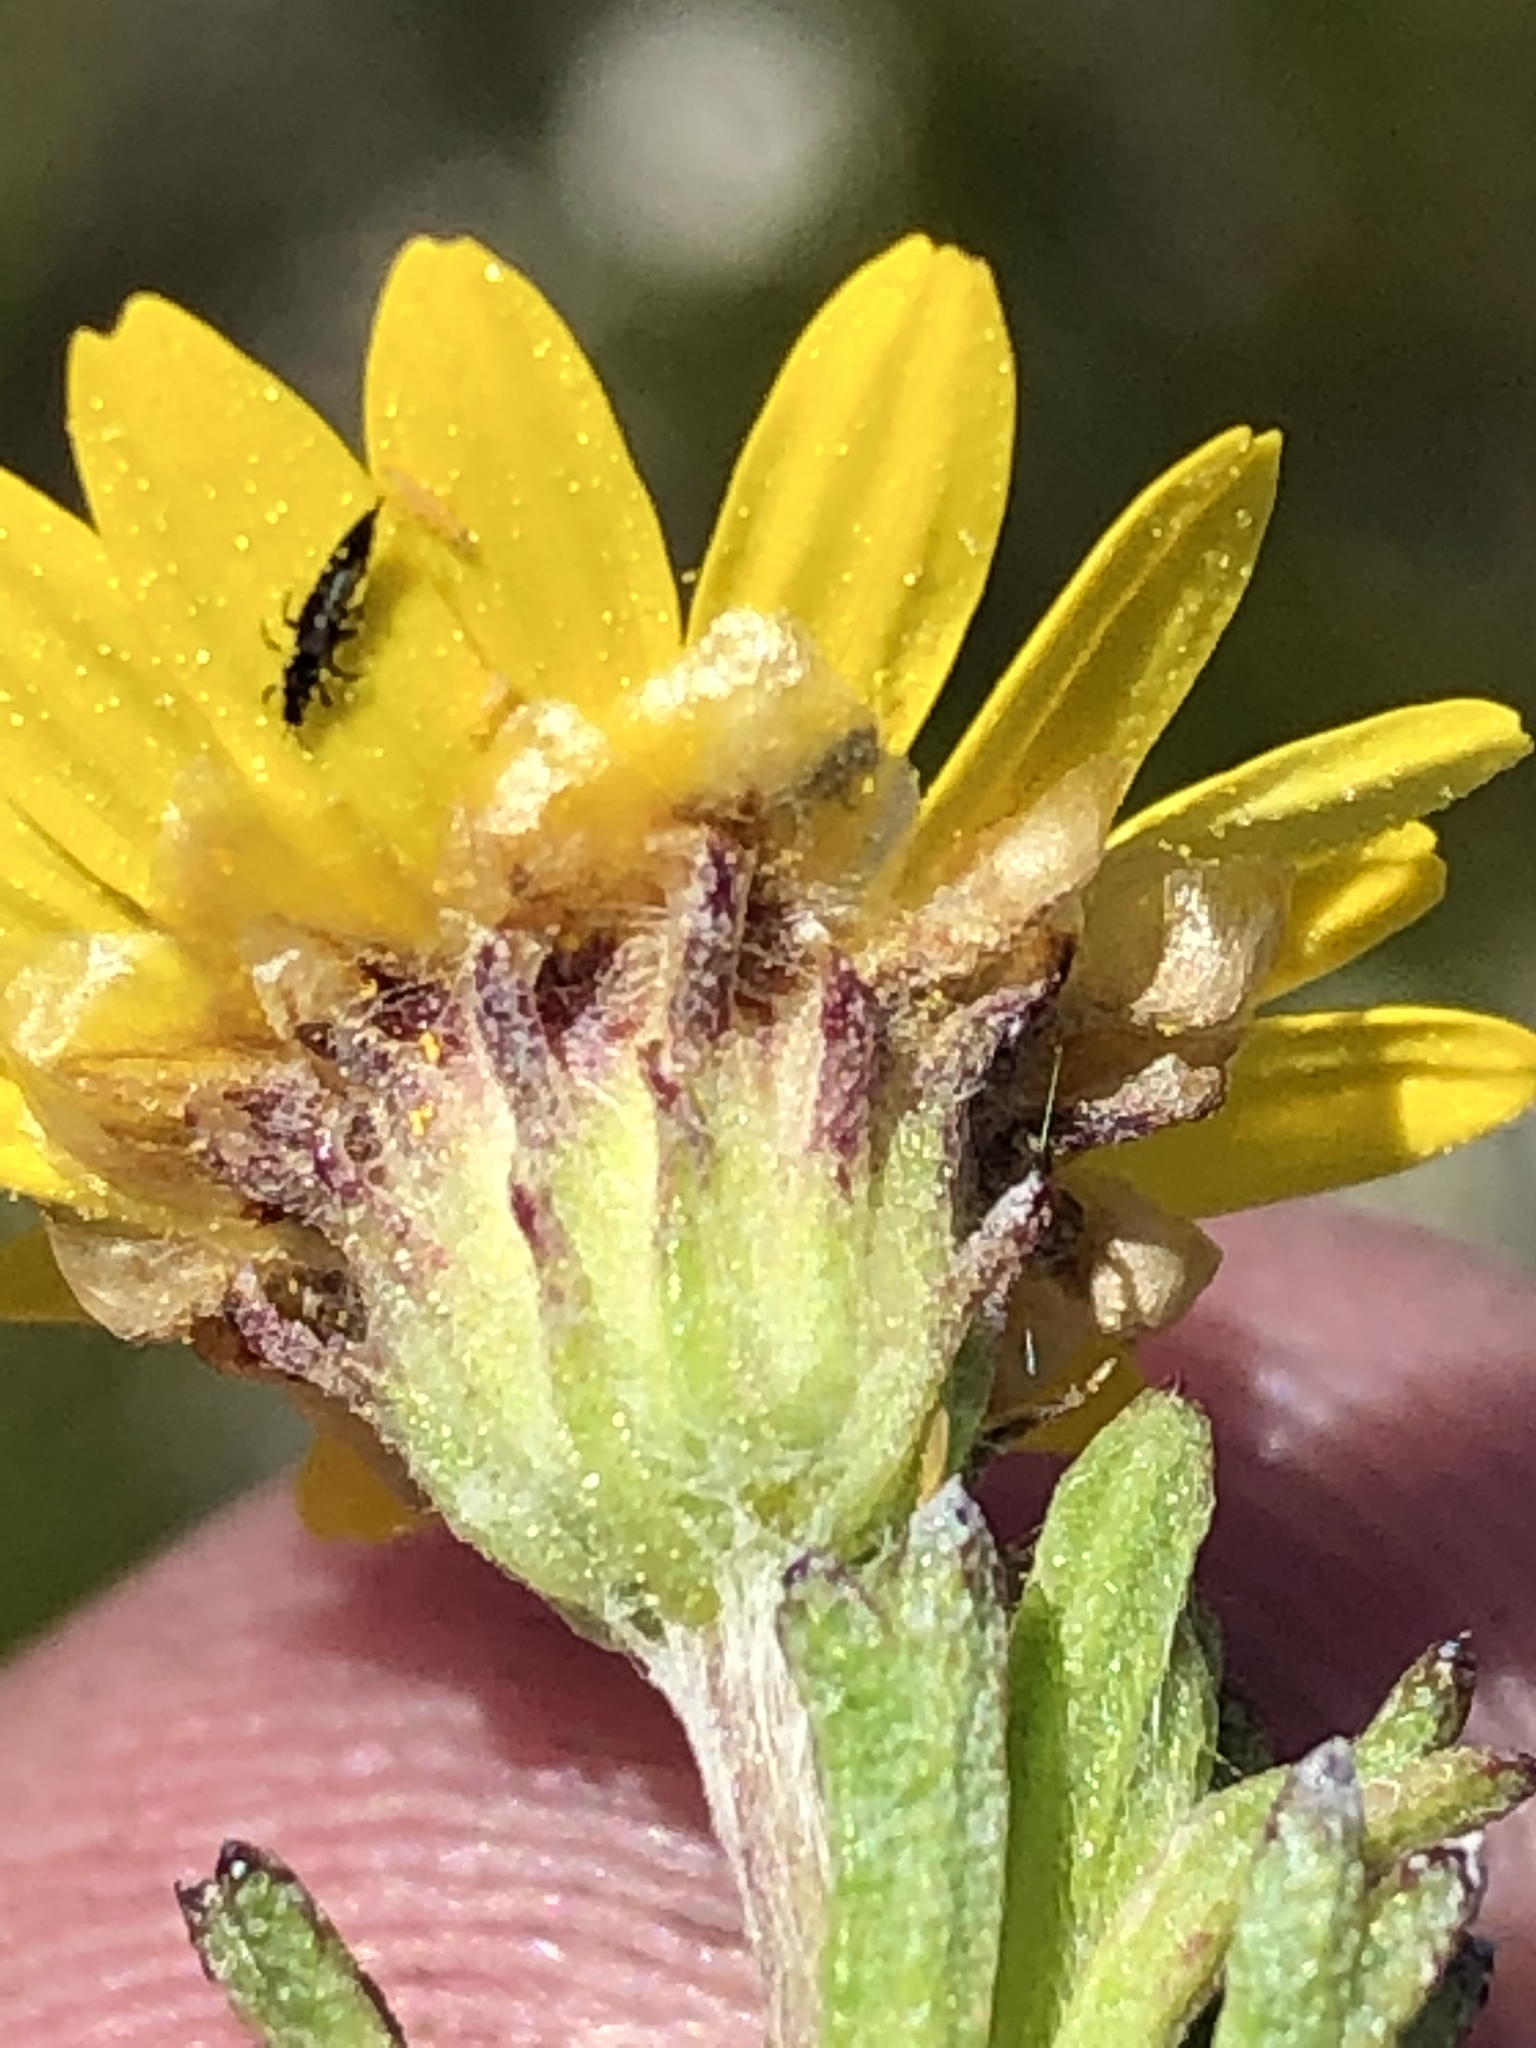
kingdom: Plantae
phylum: Tracheophyta
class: Magnoliopsida
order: Asterales
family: Asteraceae
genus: Ursinia
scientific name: Ursinia trifida
